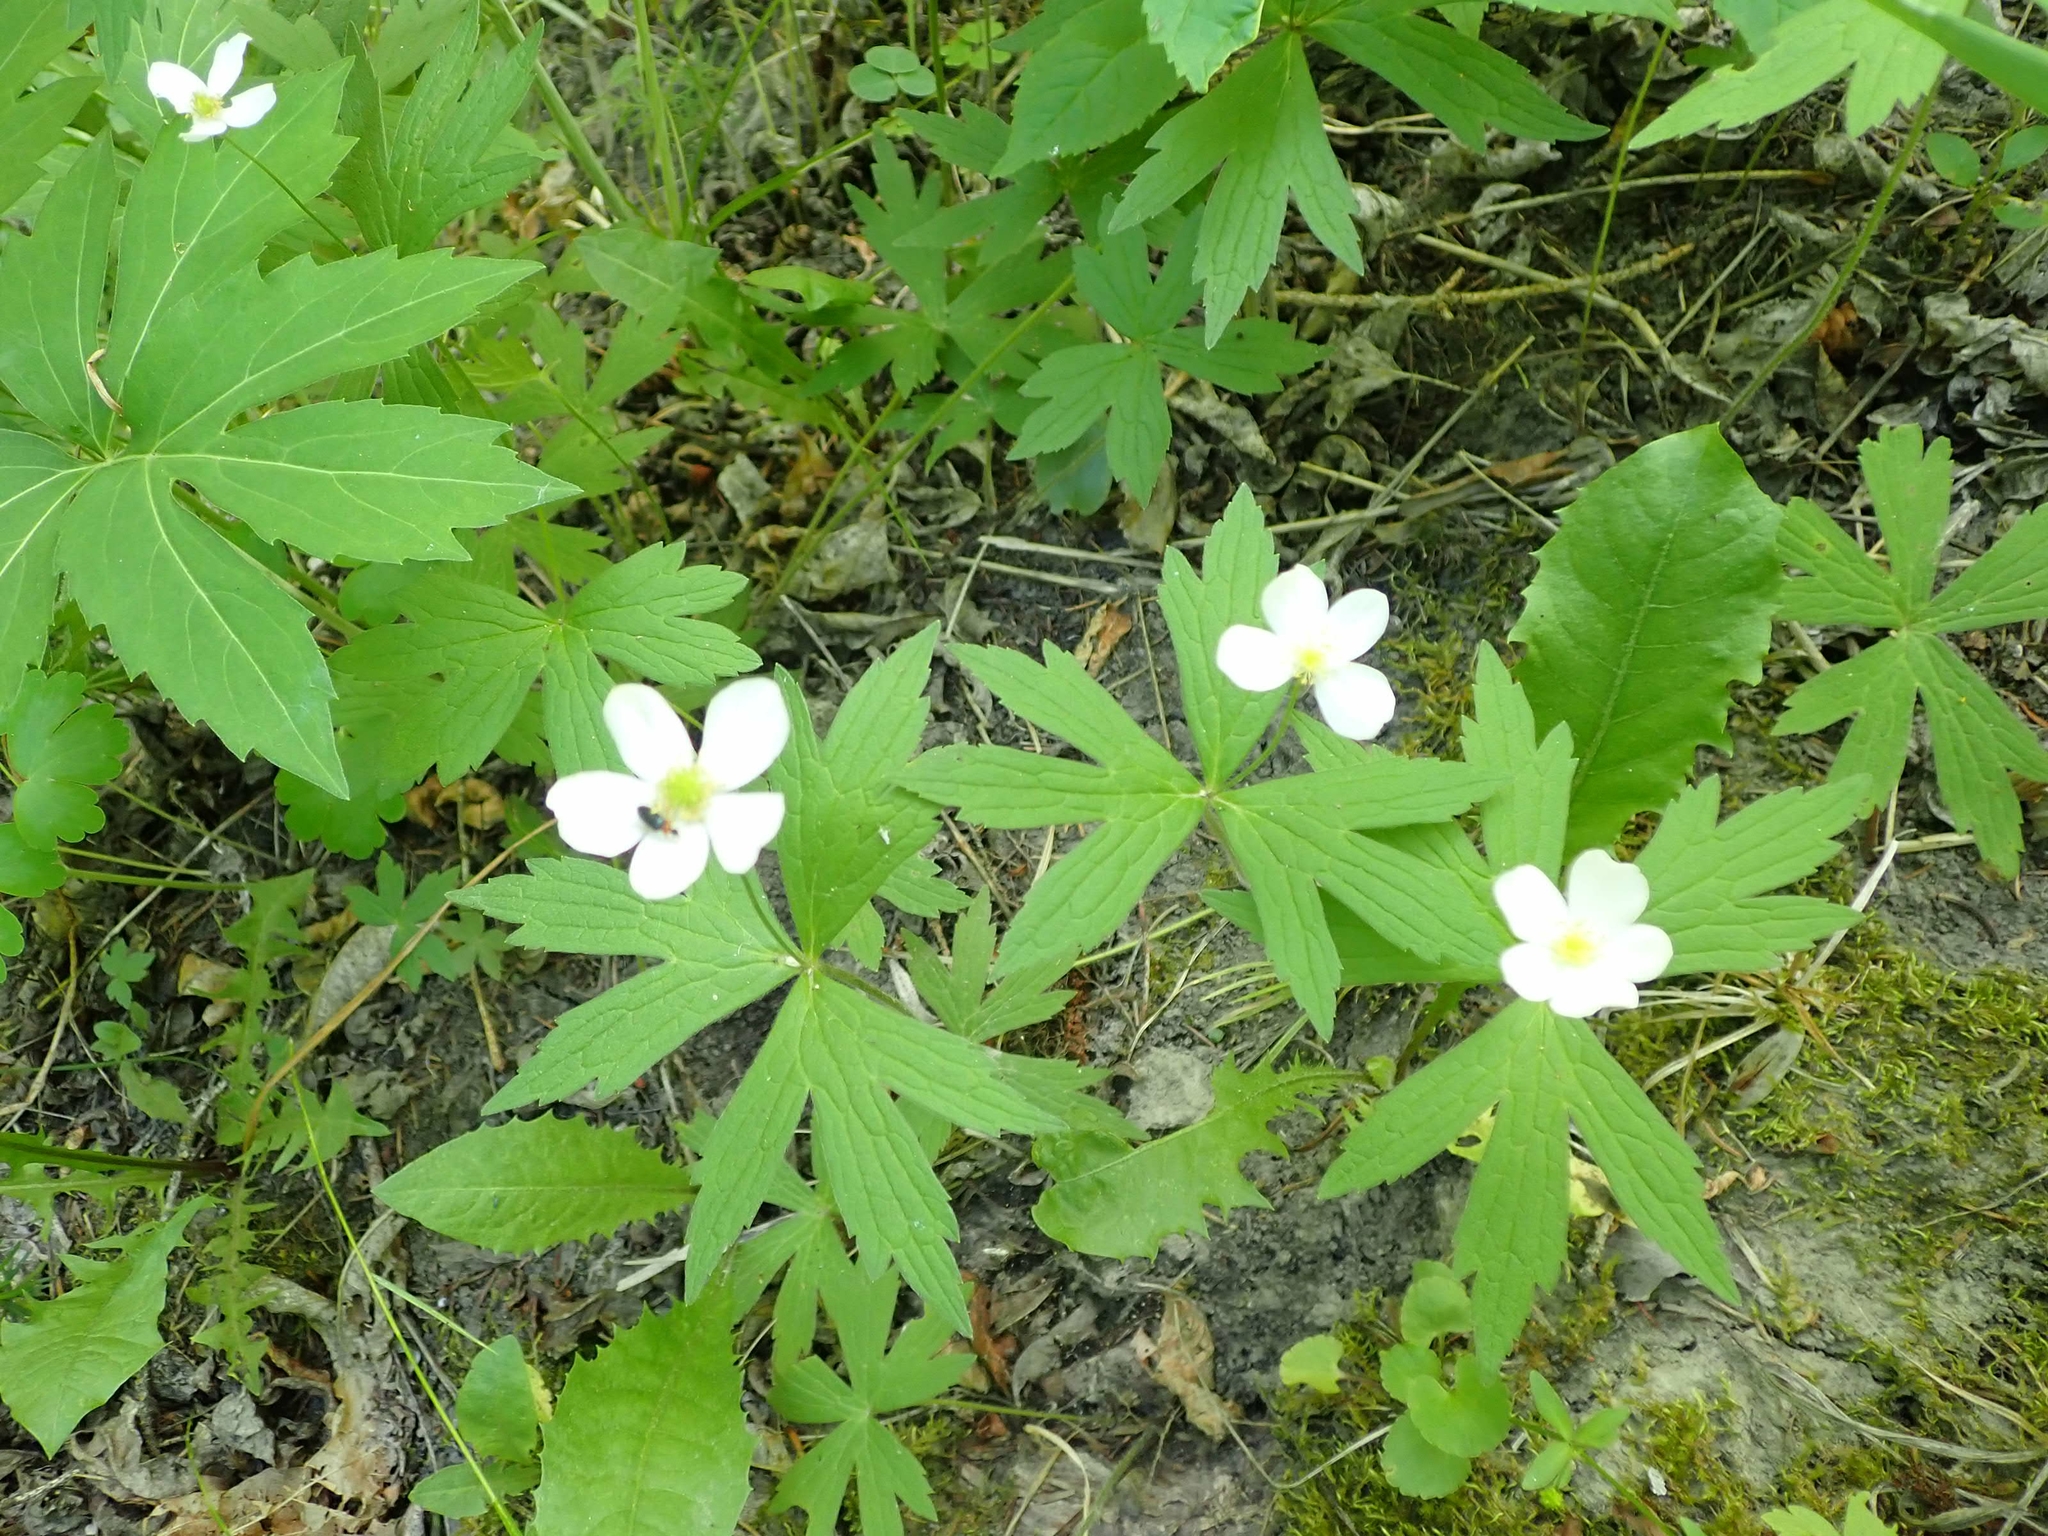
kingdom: Plantae
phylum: Tracheophyta
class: Magnoliopsida
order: Ranunculales
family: Ranunculaceae
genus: Anemonastrum
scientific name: Anemonastrum canadense
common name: Canada anemone
